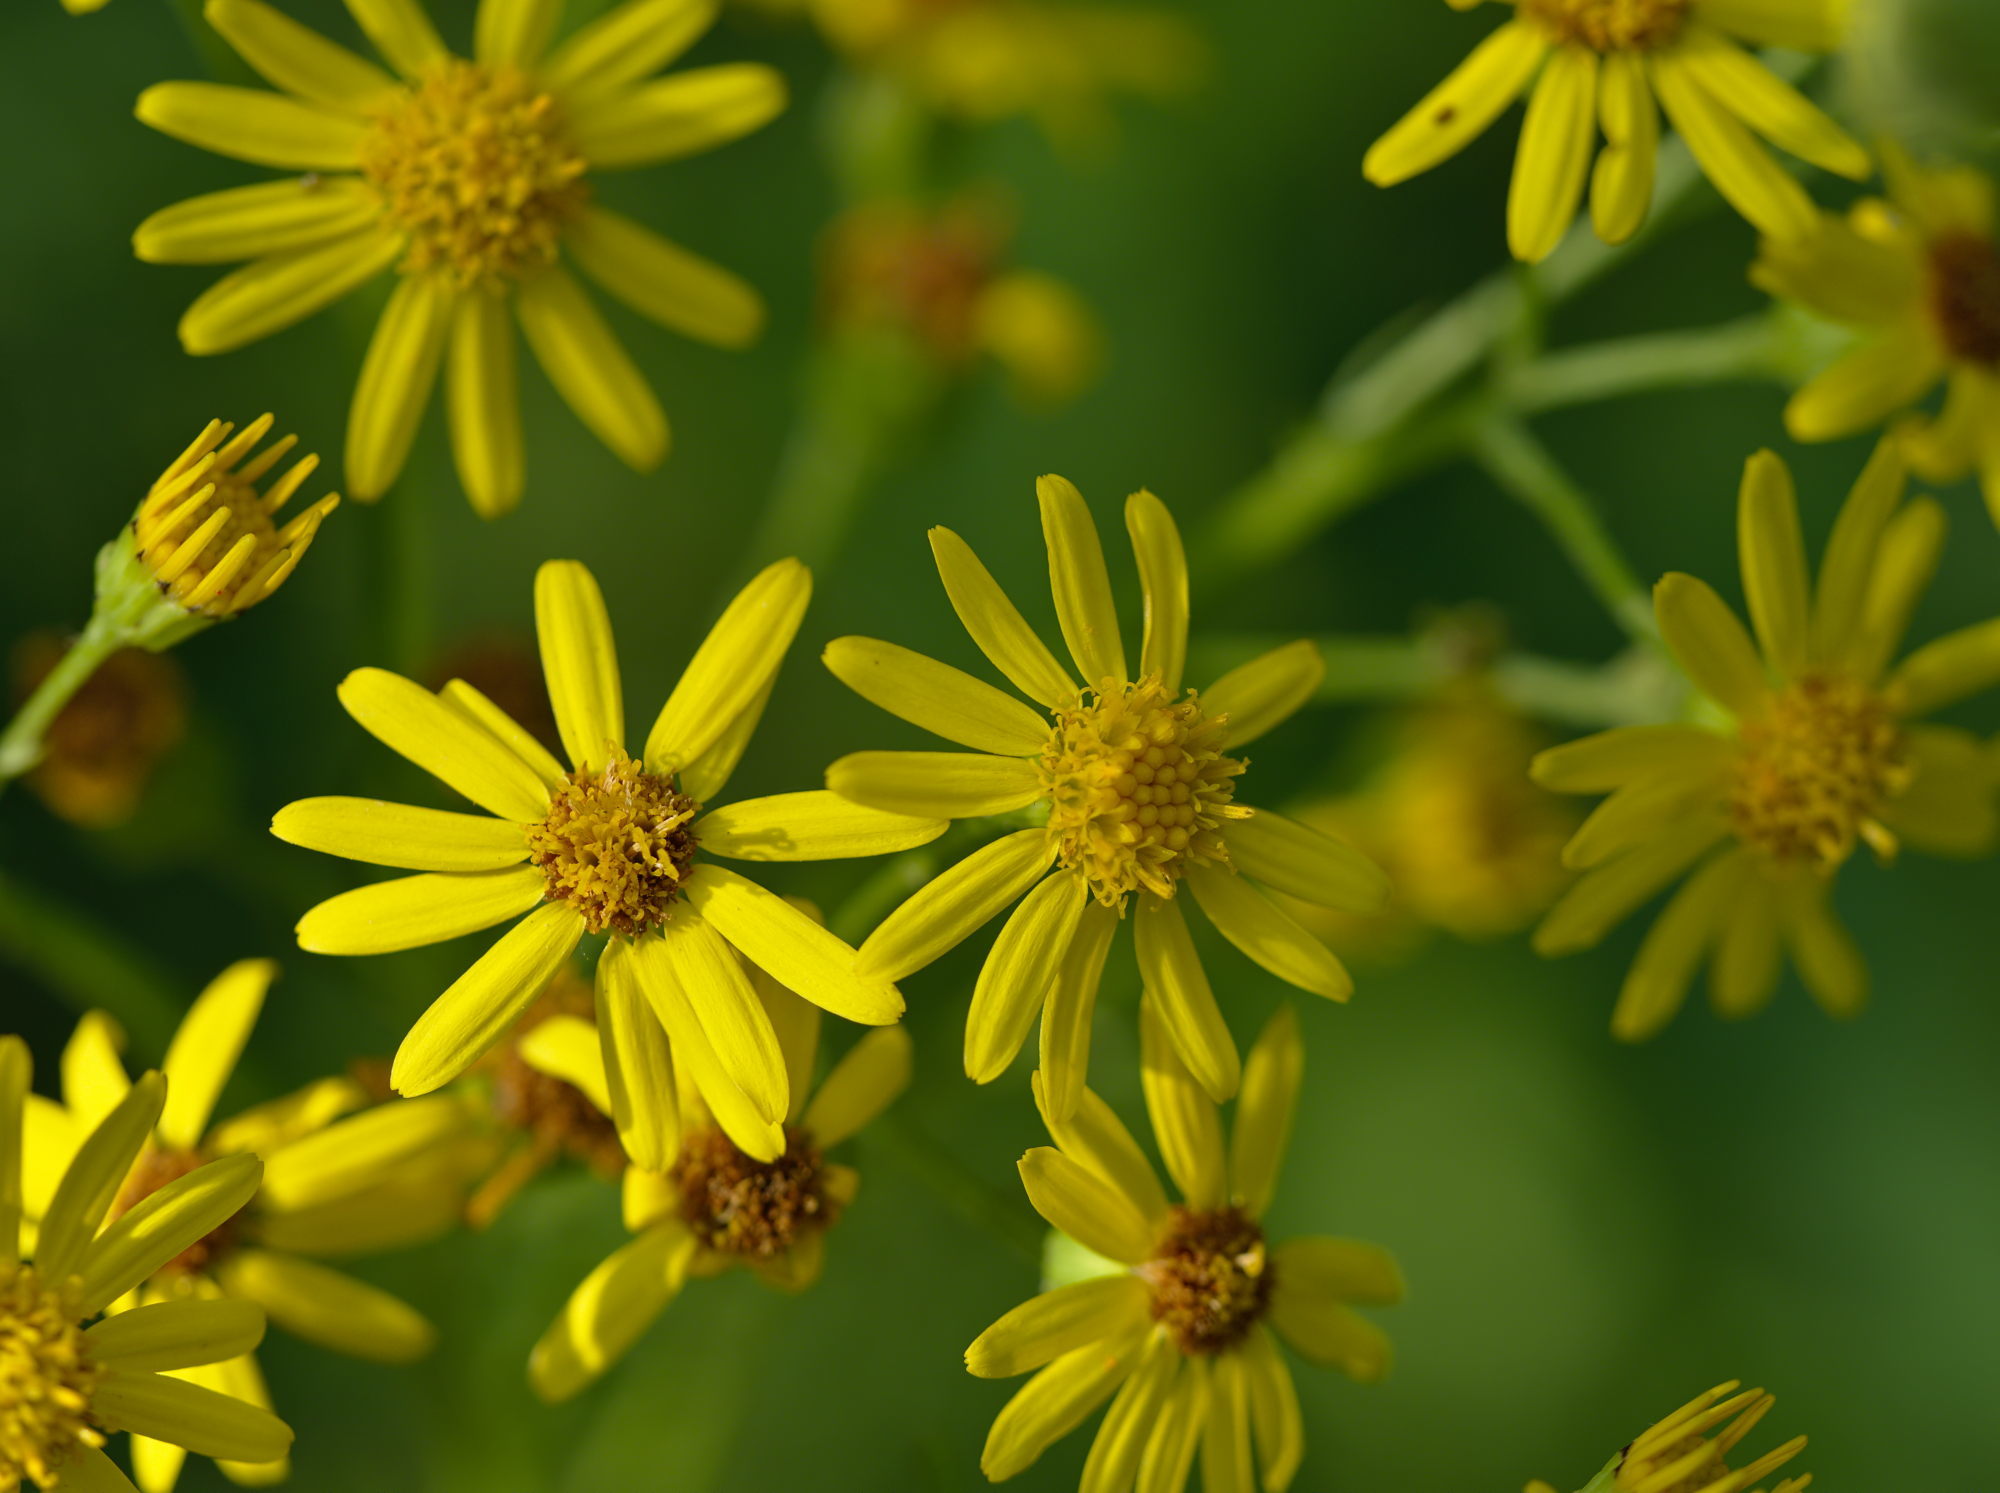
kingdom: Plantae
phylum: Tracheophyta
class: Magnoliopsida
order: Asterales
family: Asteraceae
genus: Jacobaea
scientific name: Jacobaea vulgaris
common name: Stinking willie
